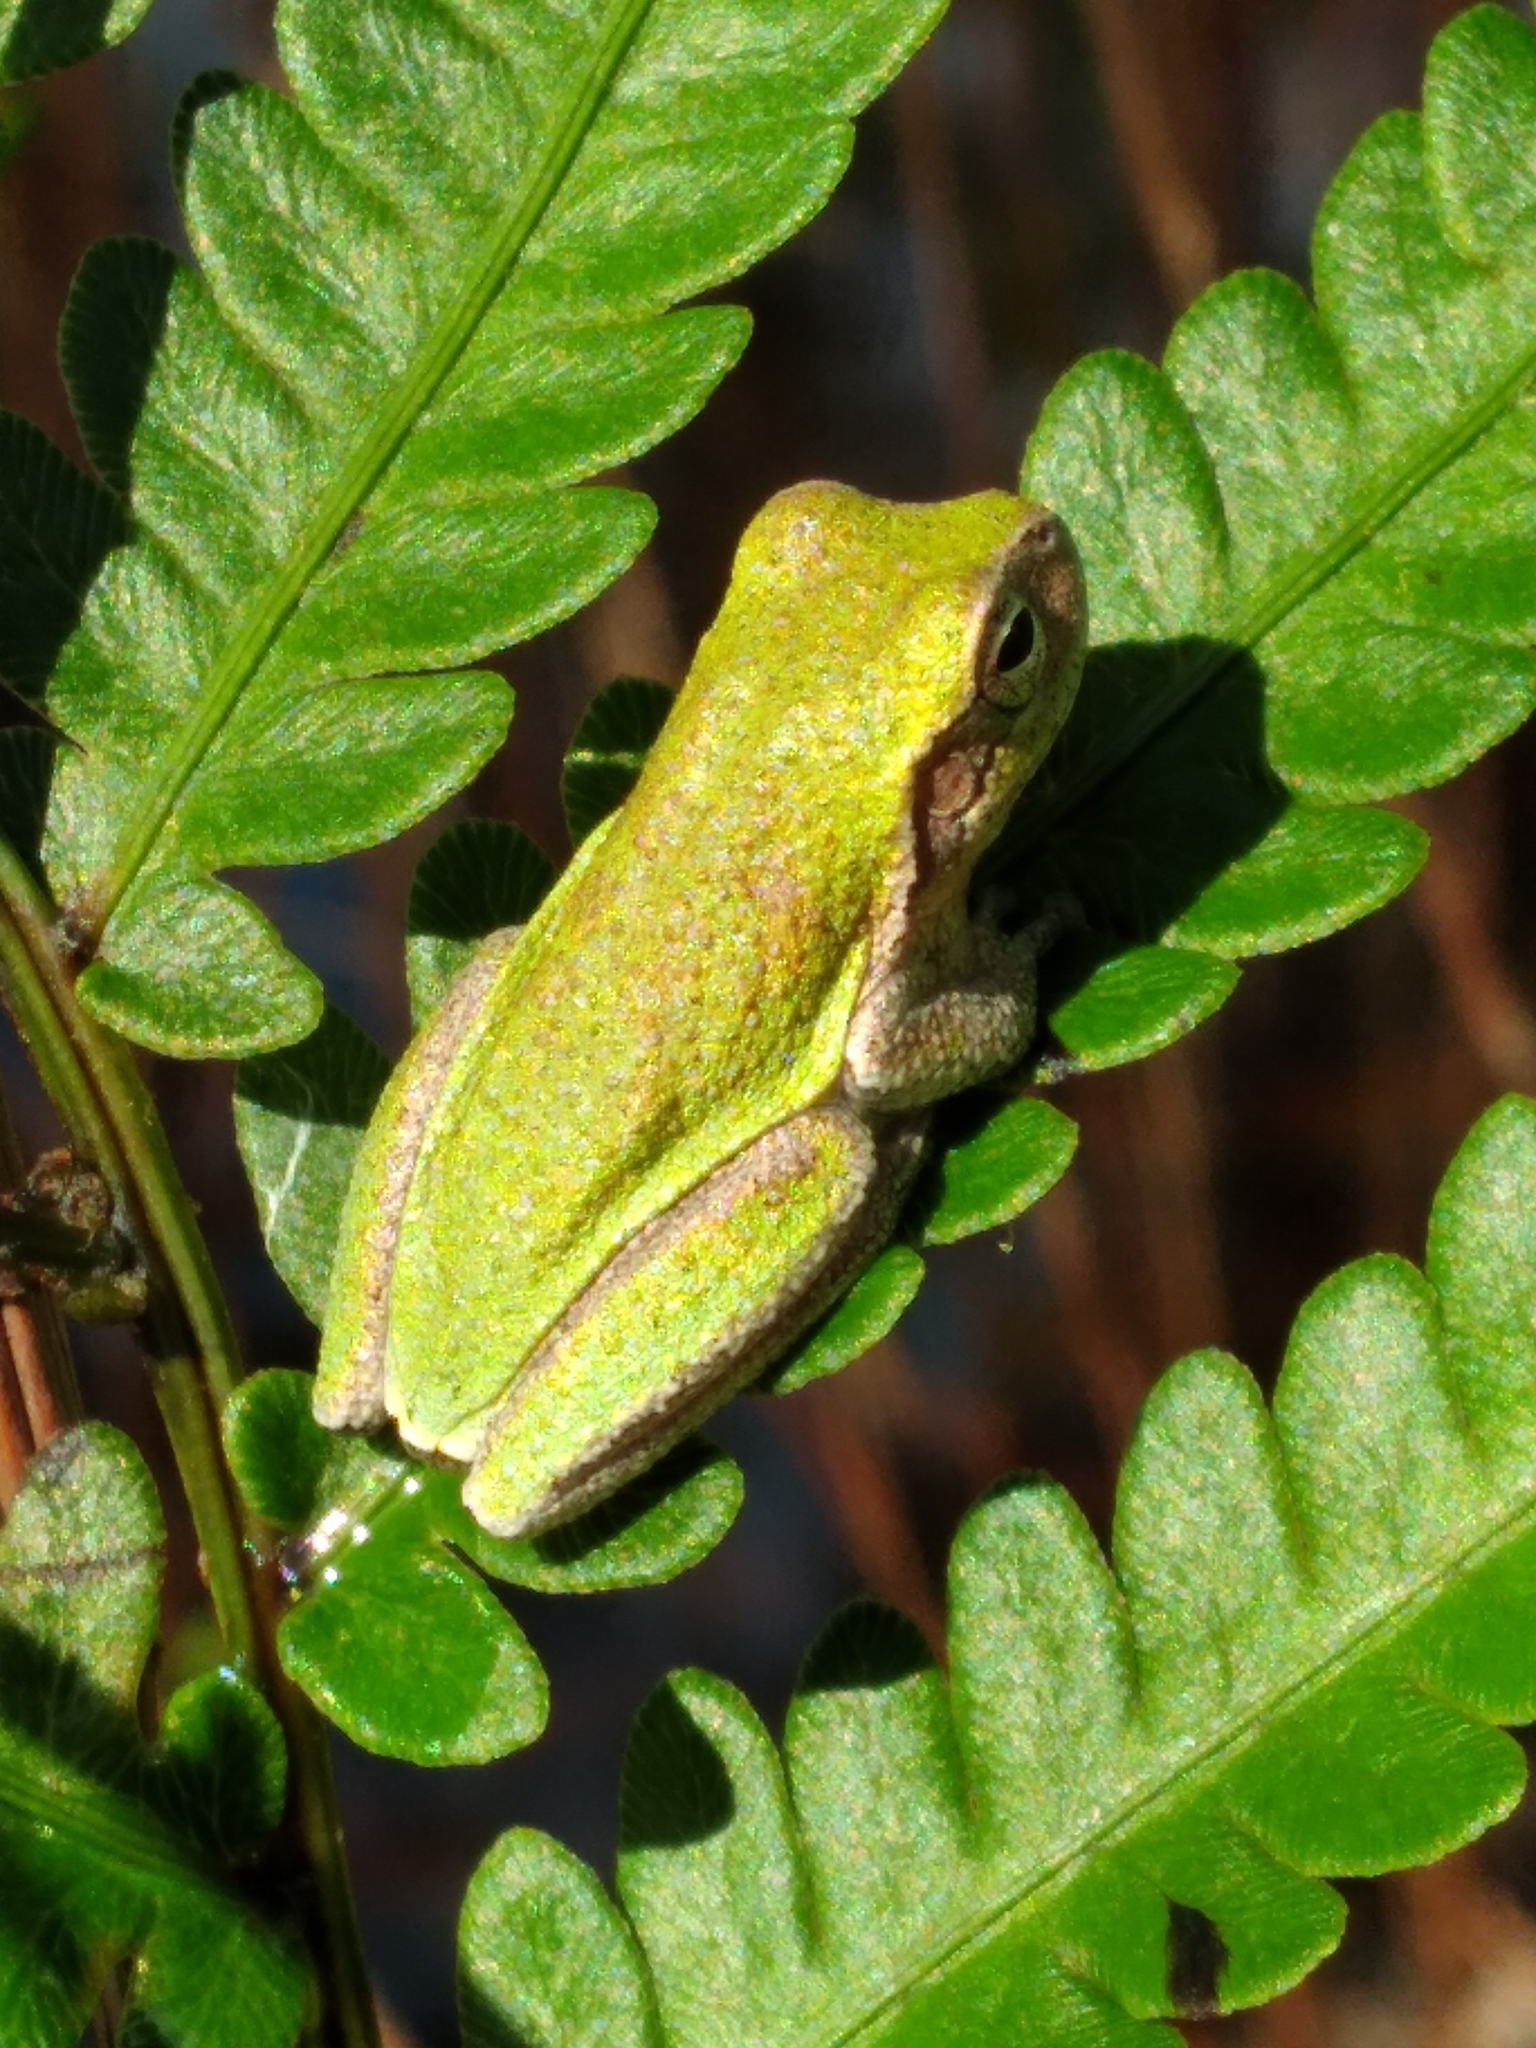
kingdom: Animalia
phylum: Chordata
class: Amphibia
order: Anura
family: Hylidae
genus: Hyla
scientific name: Hyla femoralis
